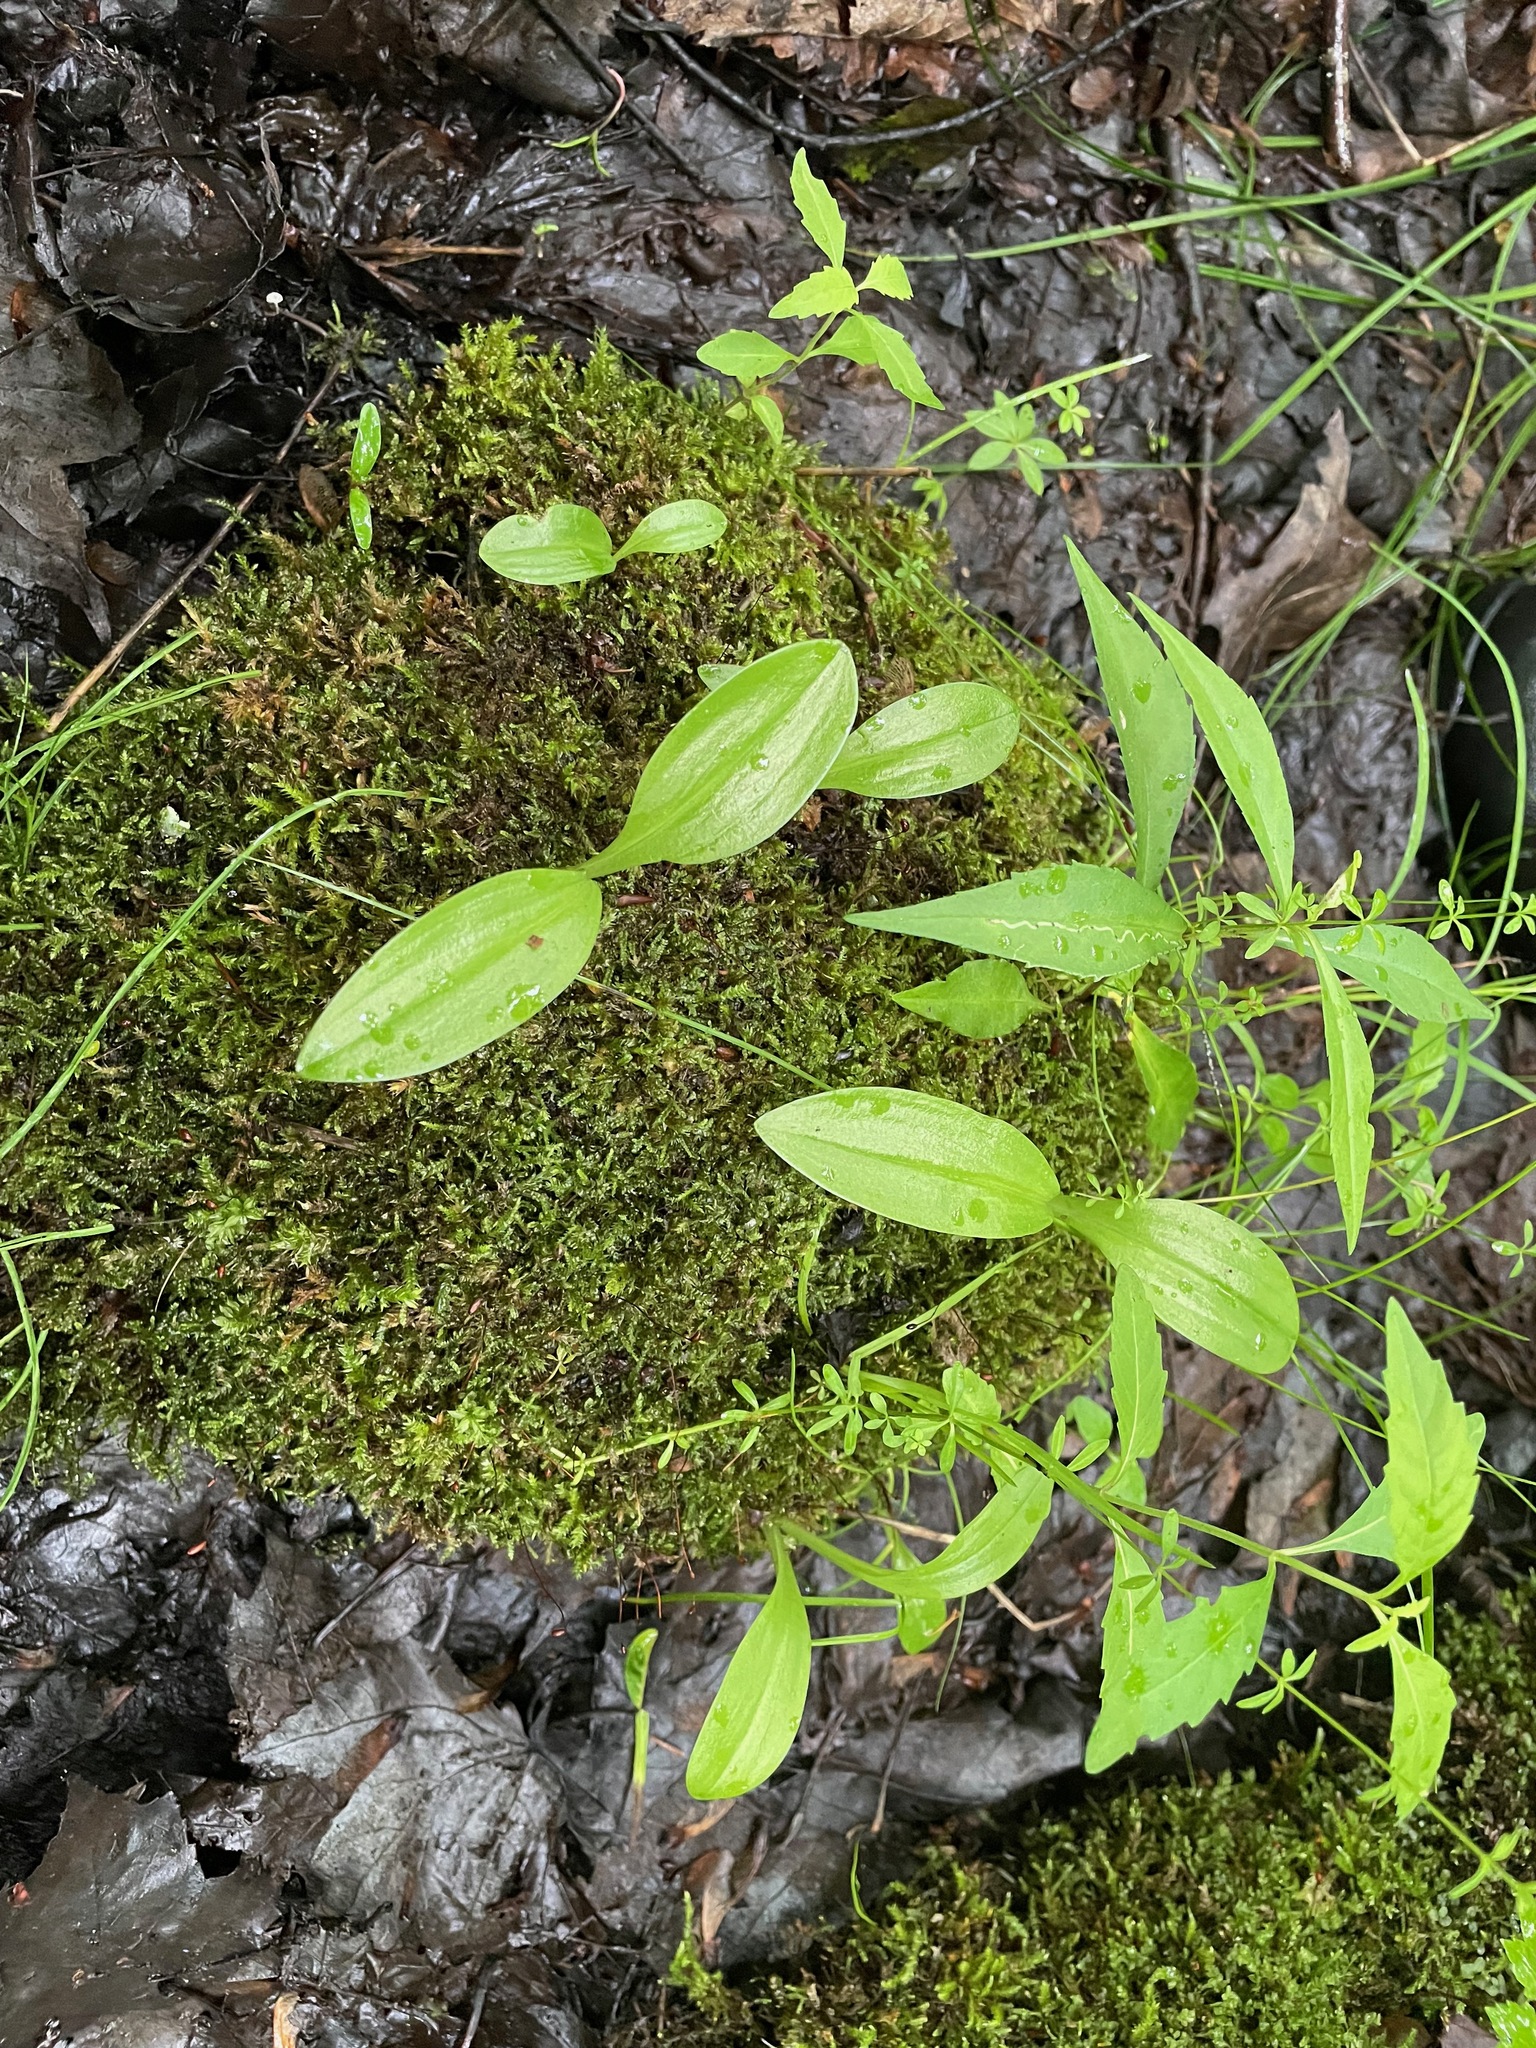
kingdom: Animalia
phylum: Arthropoda
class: Insecta
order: Coleoptera
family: Curculionidae
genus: Liparis
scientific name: Liparis loeselii
